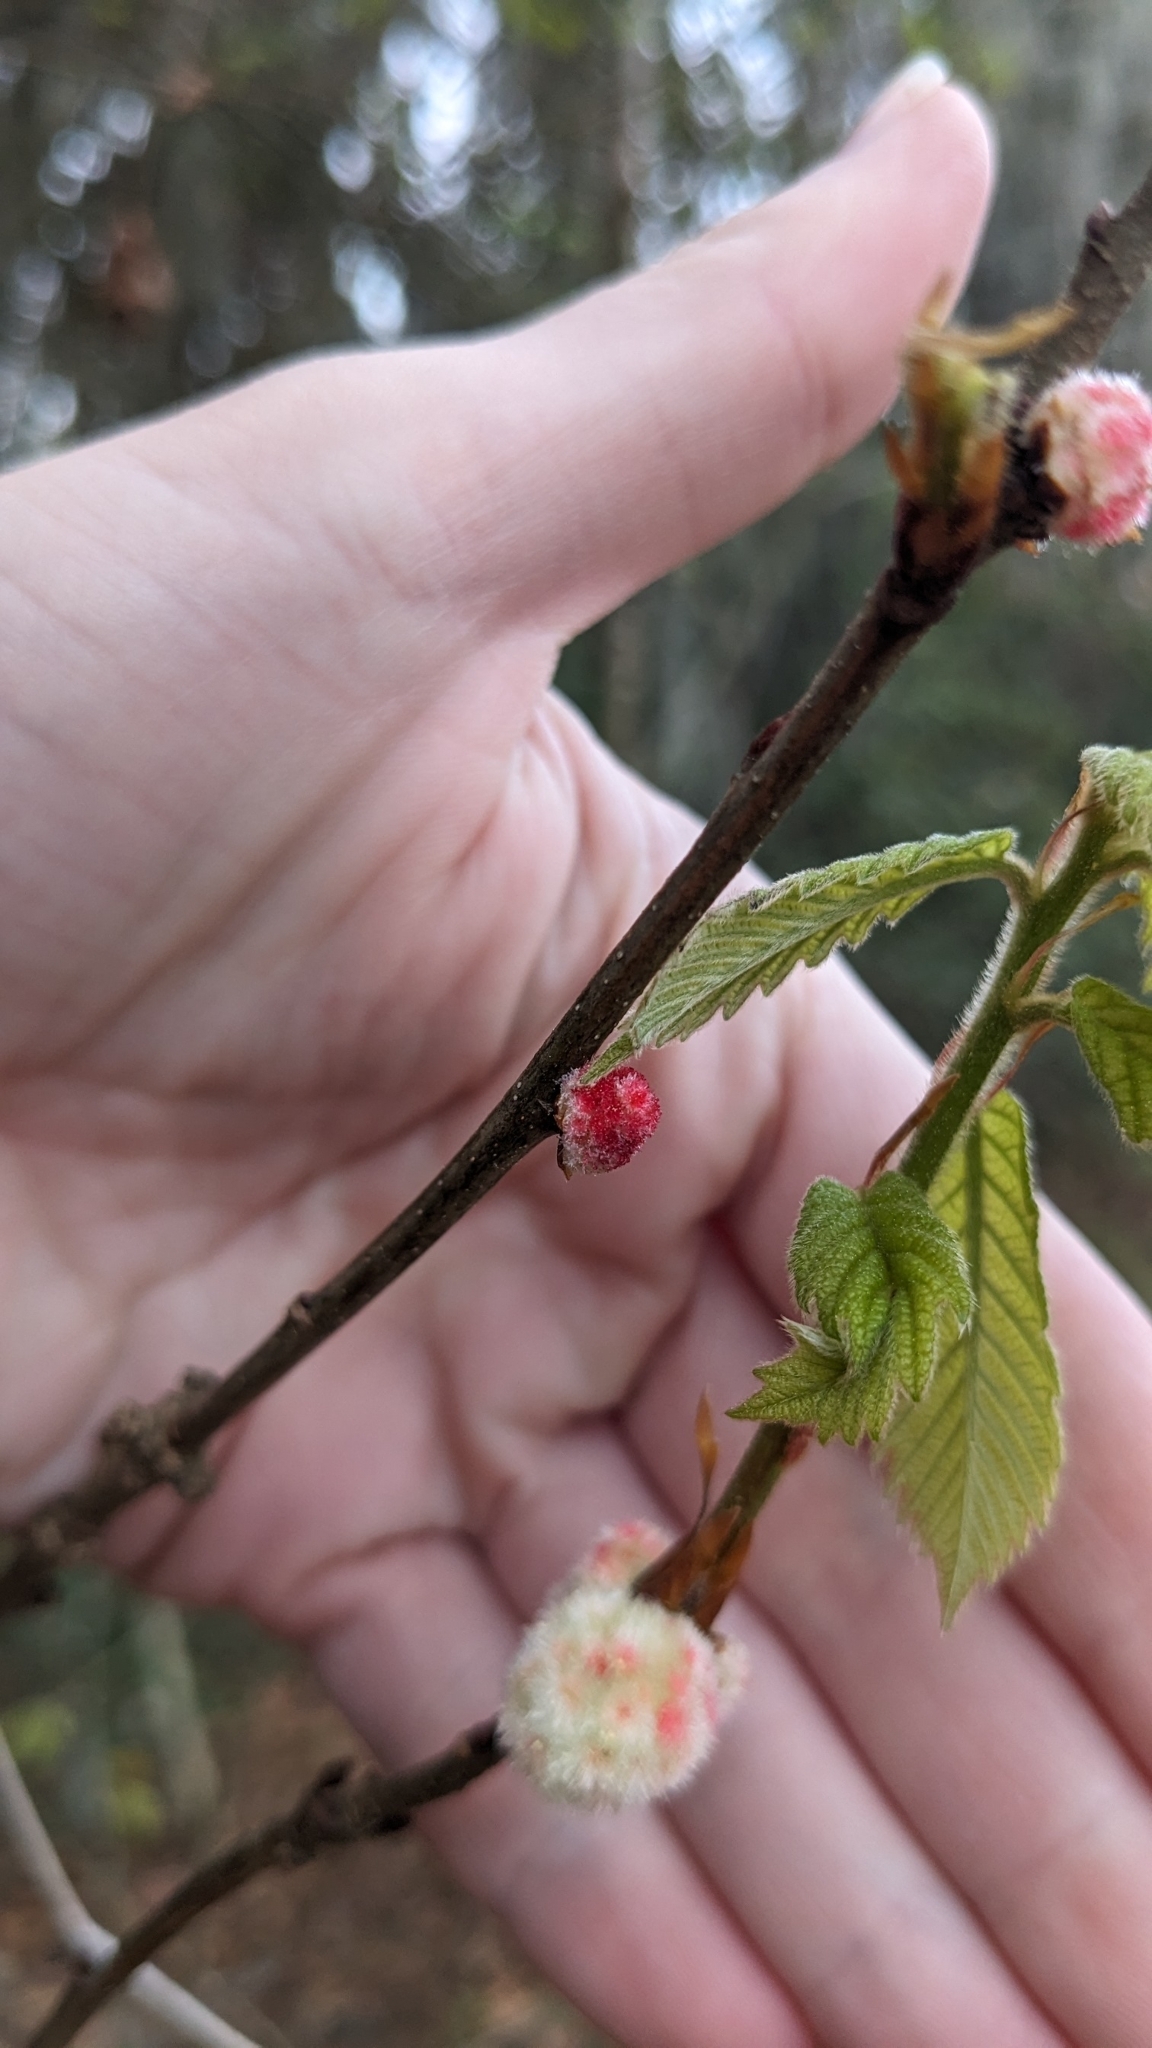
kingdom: Animalia
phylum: Arthropoda
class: Insecta
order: Hymenoptera
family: Cynipidae
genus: Callirhytis
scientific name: Callirhytis
